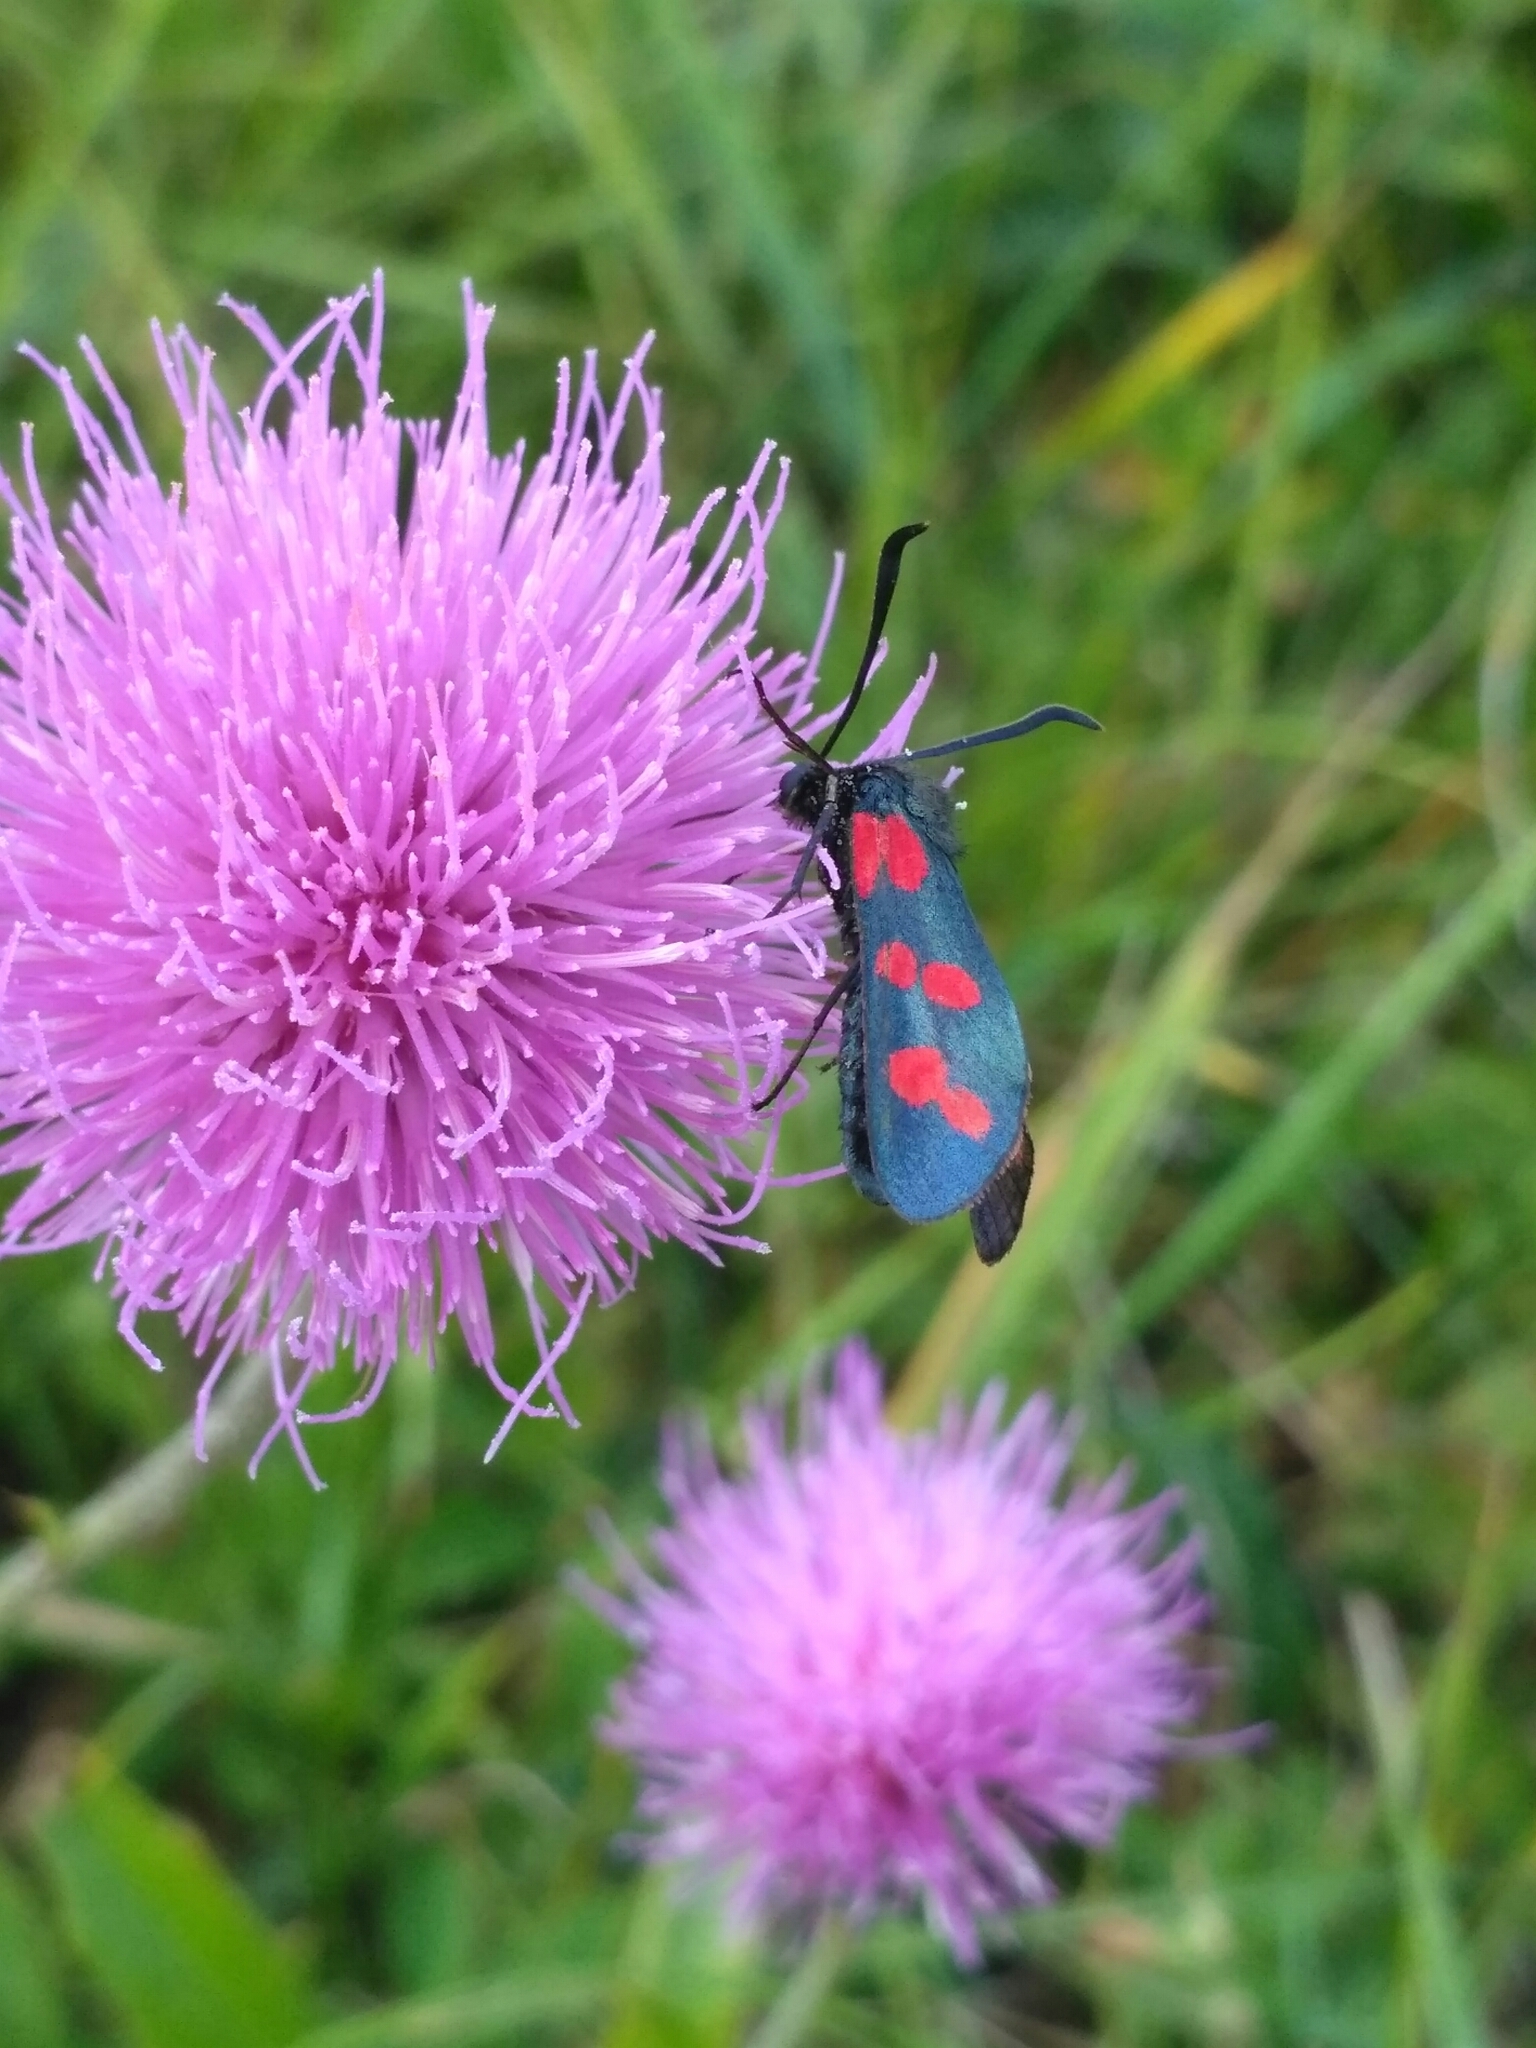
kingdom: Animalia
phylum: Arthropoda
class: Insecta
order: Lepidoptera
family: Zygaenidae
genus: Zygaena
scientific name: Zygaena filipendulae
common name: Six-spot burnet
